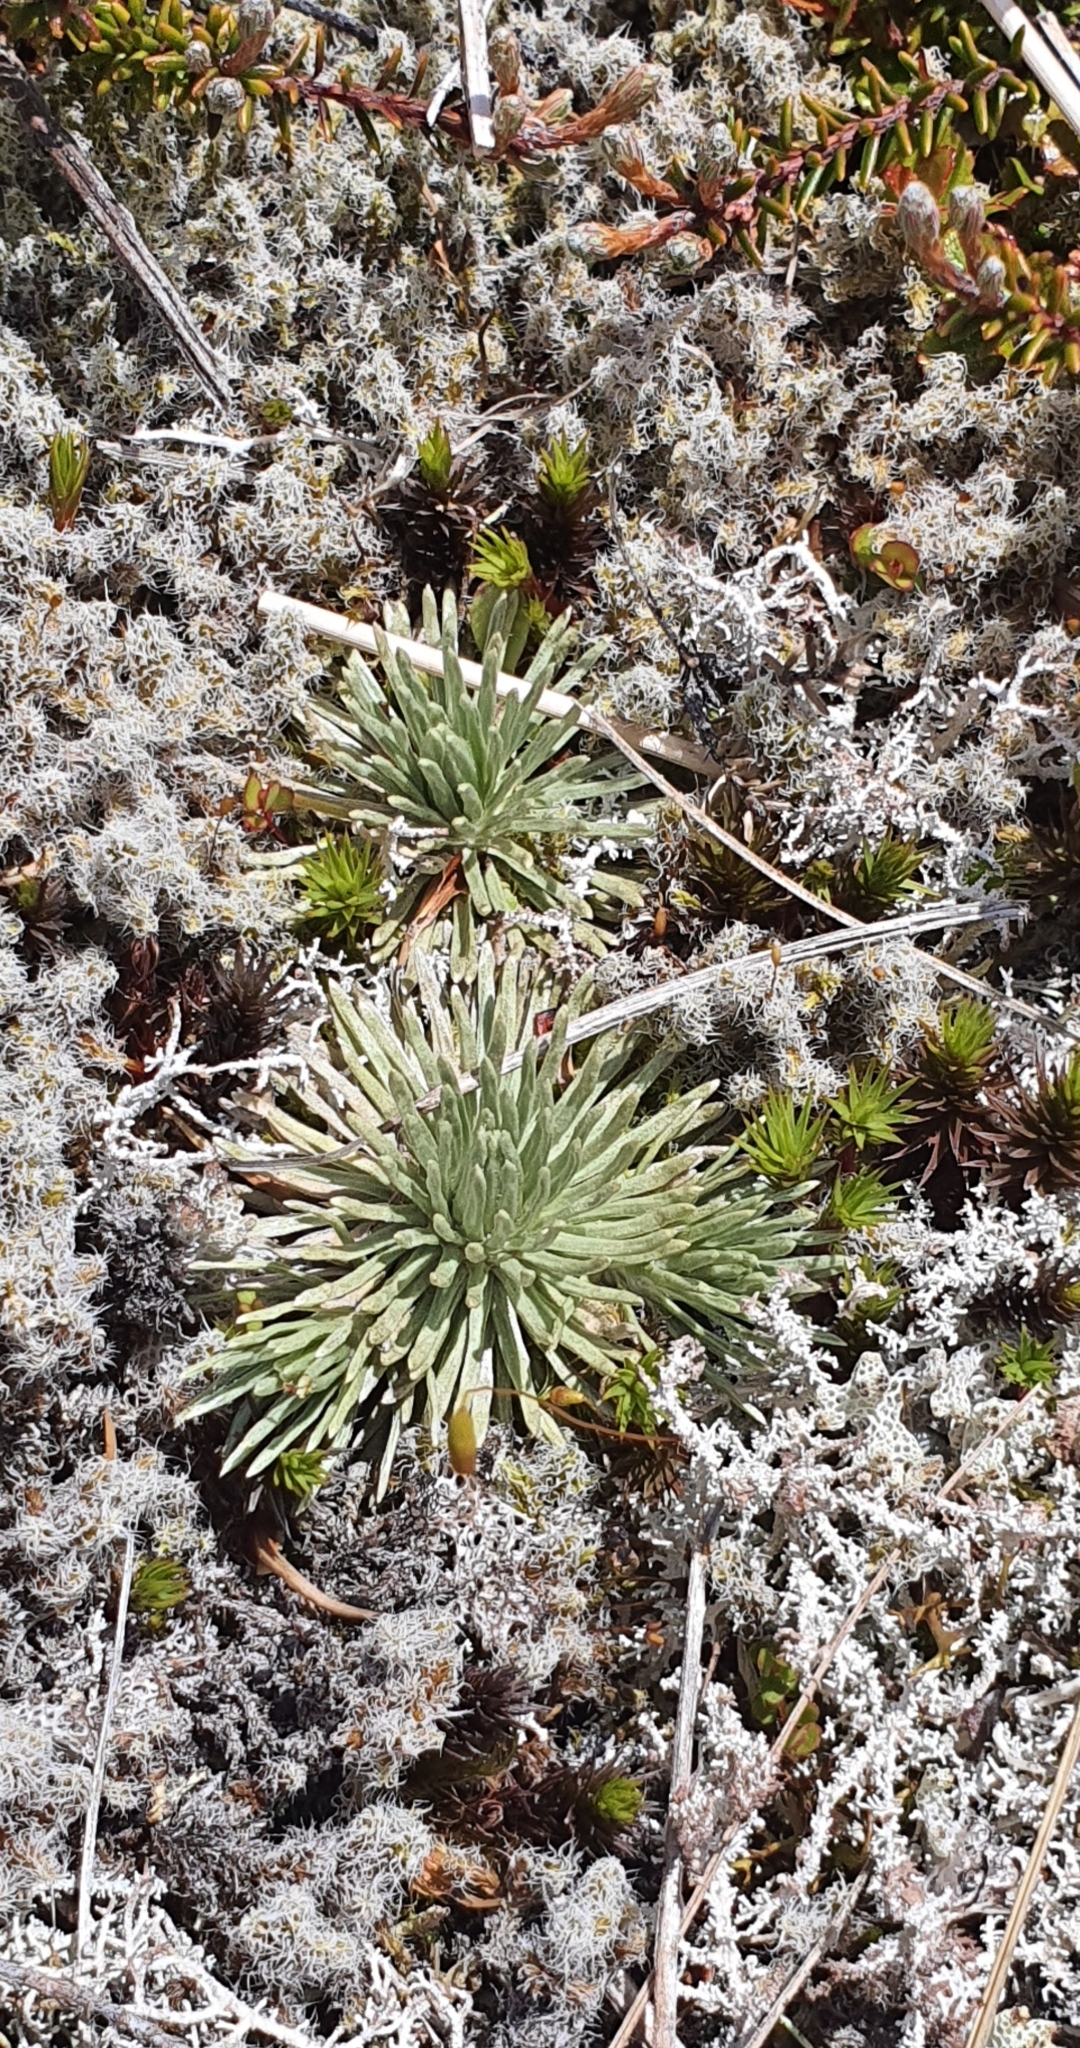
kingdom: Plantae
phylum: Tracheophyta
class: Magnoliopsida
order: Asterales
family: Asteraceae
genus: Celmisia
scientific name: Celmisia sessiliflora
